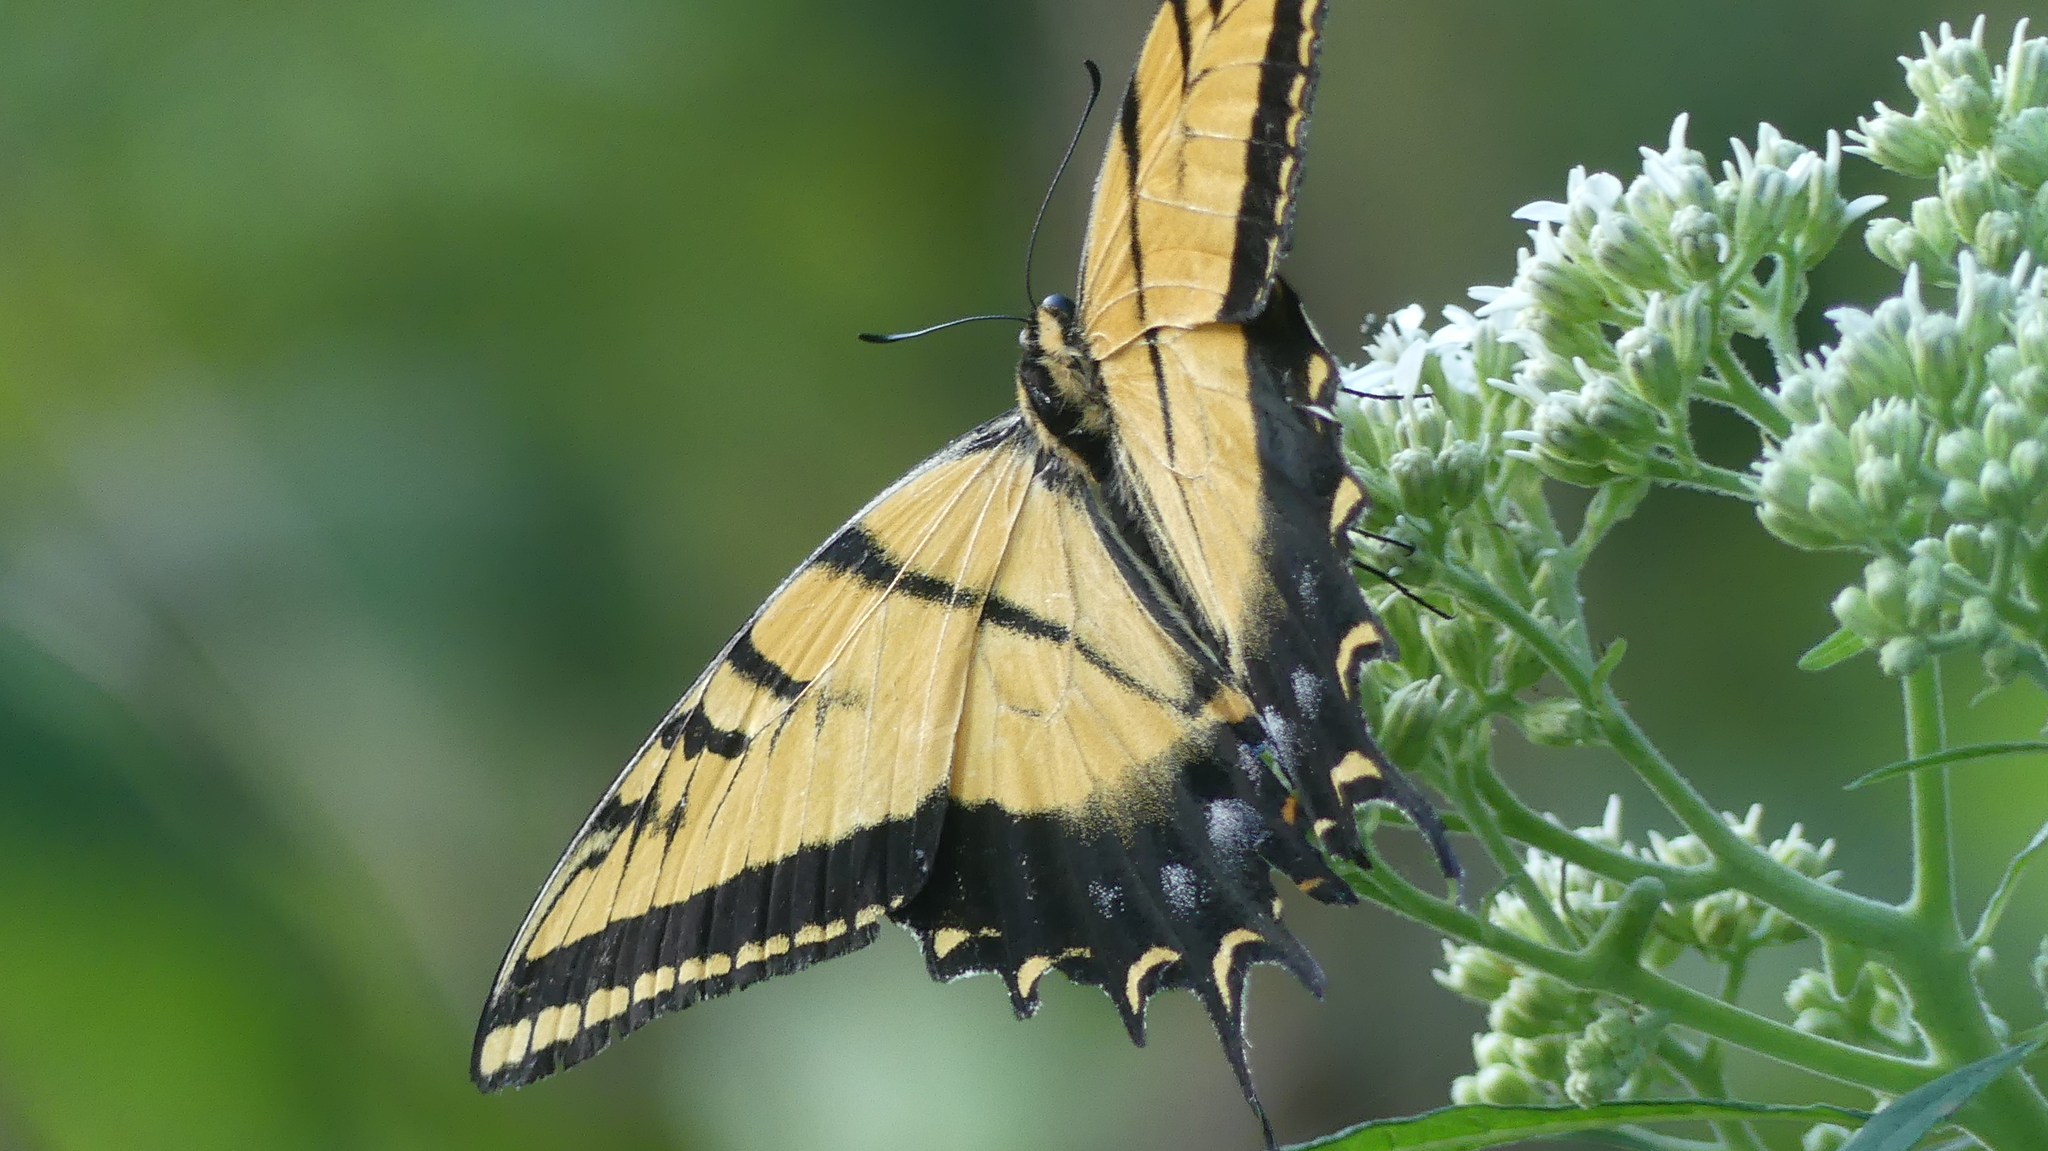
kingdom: Animalia
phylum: Arthropoda
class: Insecta
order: Lepidoptera
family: Papilionidae
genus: Papilio
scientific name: Papilio multicaudata
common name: Two-tailed tiger swallowtail
